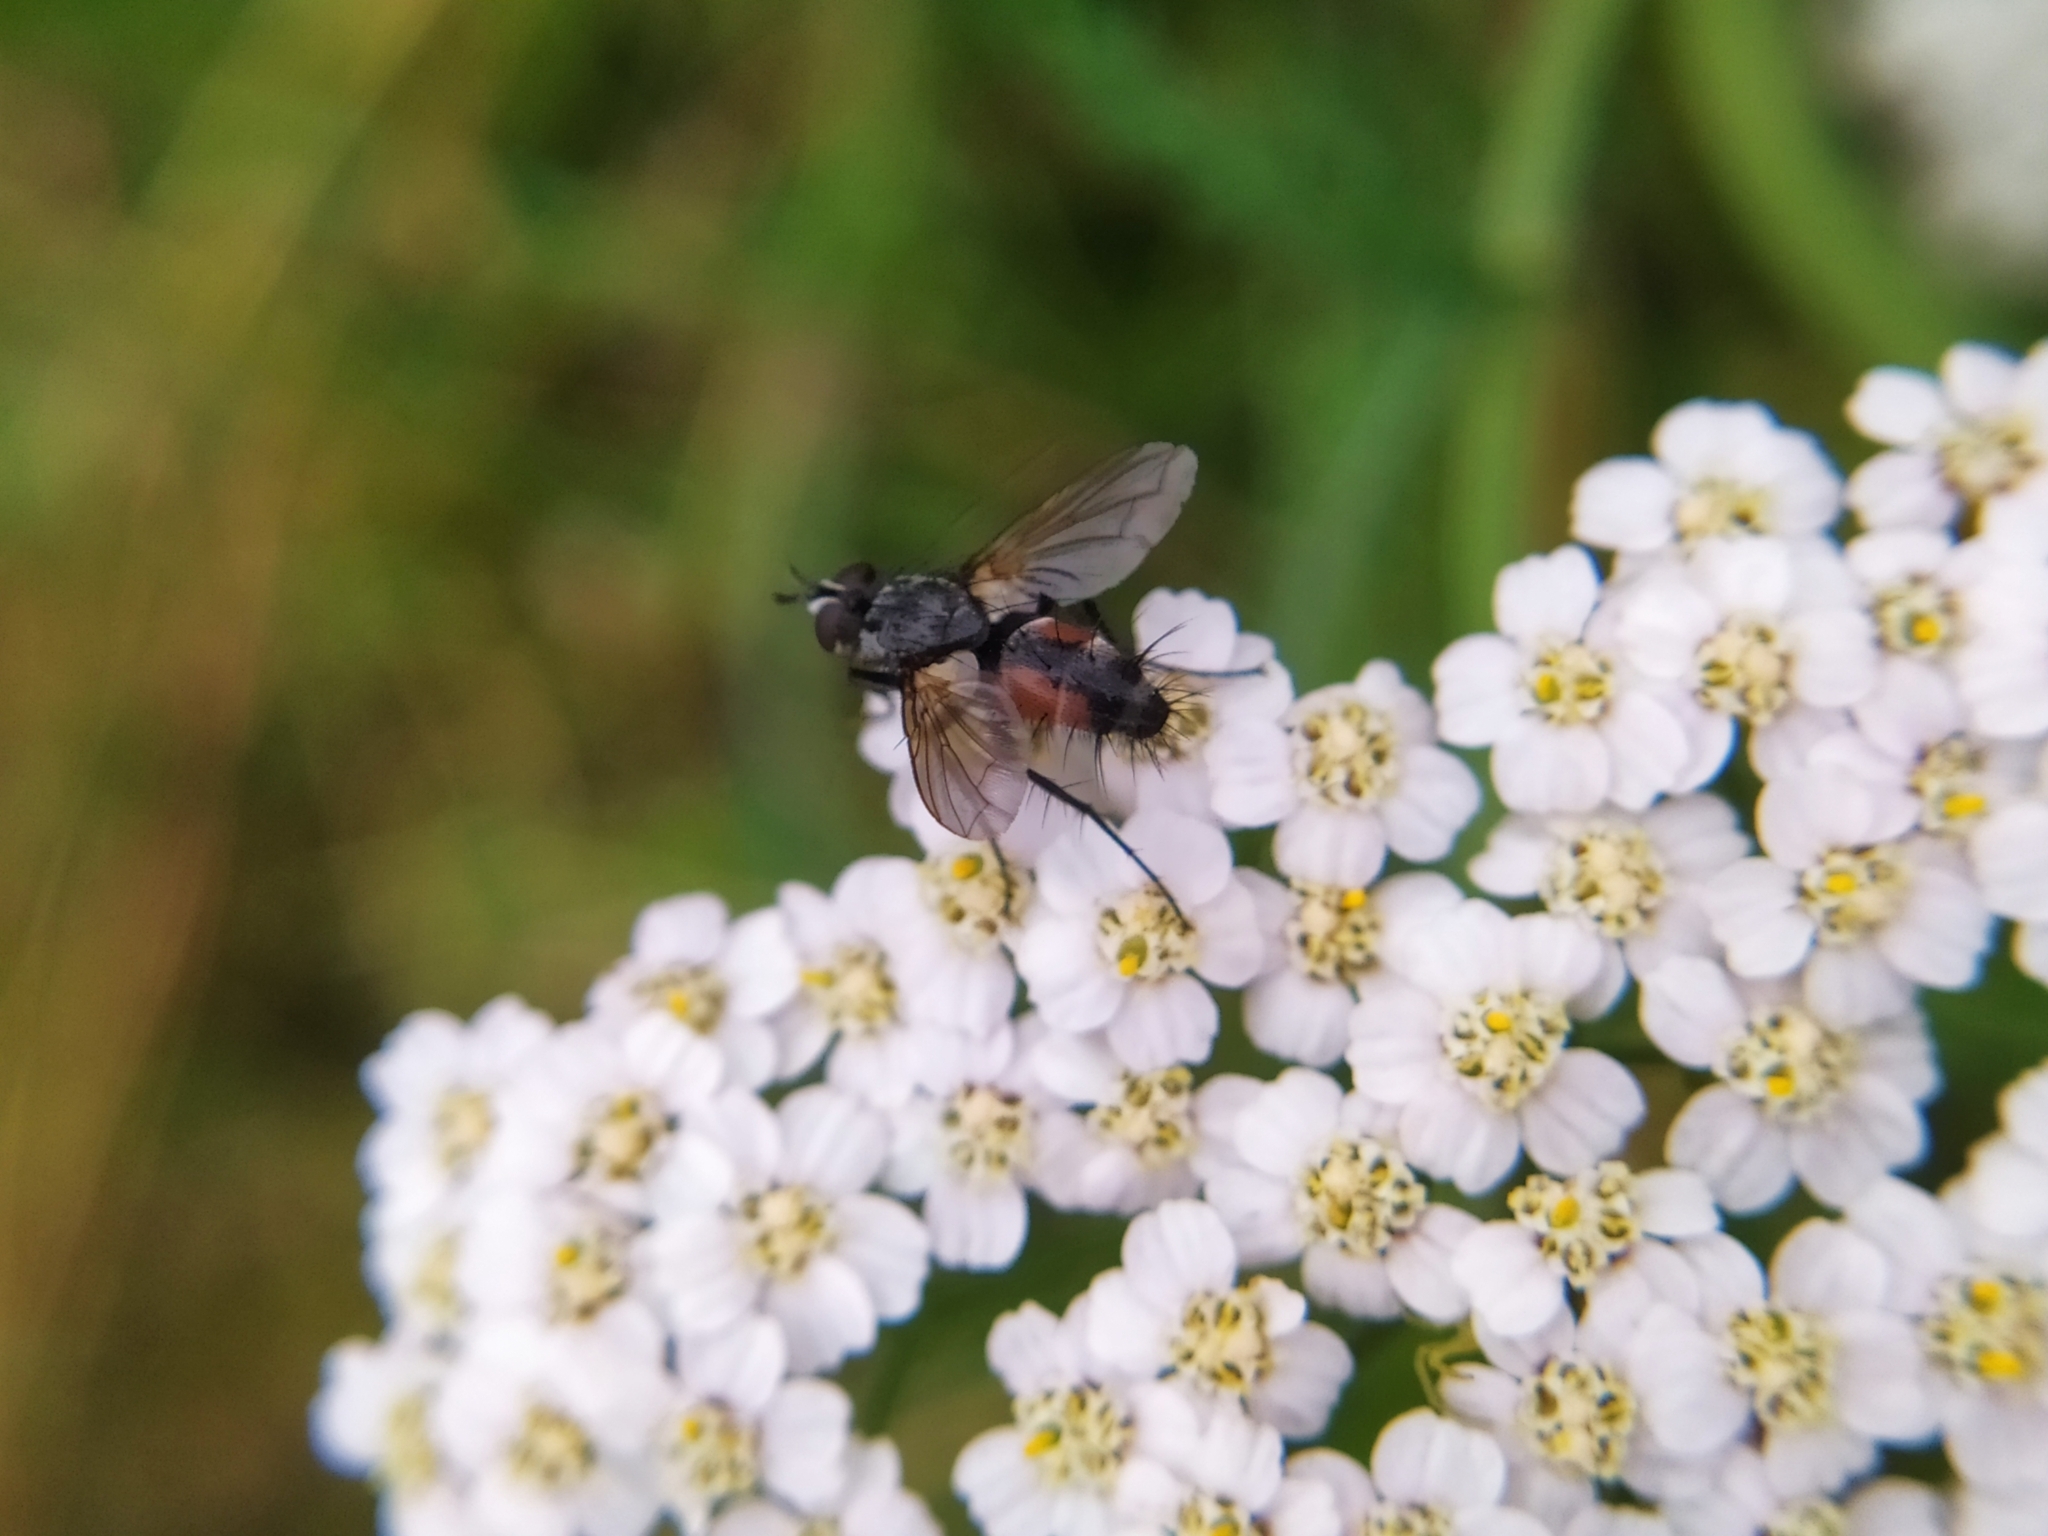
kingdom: Animalia
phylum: Arthropoda
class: Insecta
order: Diptera
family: Tachinidae
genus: Eriothrix
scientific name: Eriothrix rufomaculatus
